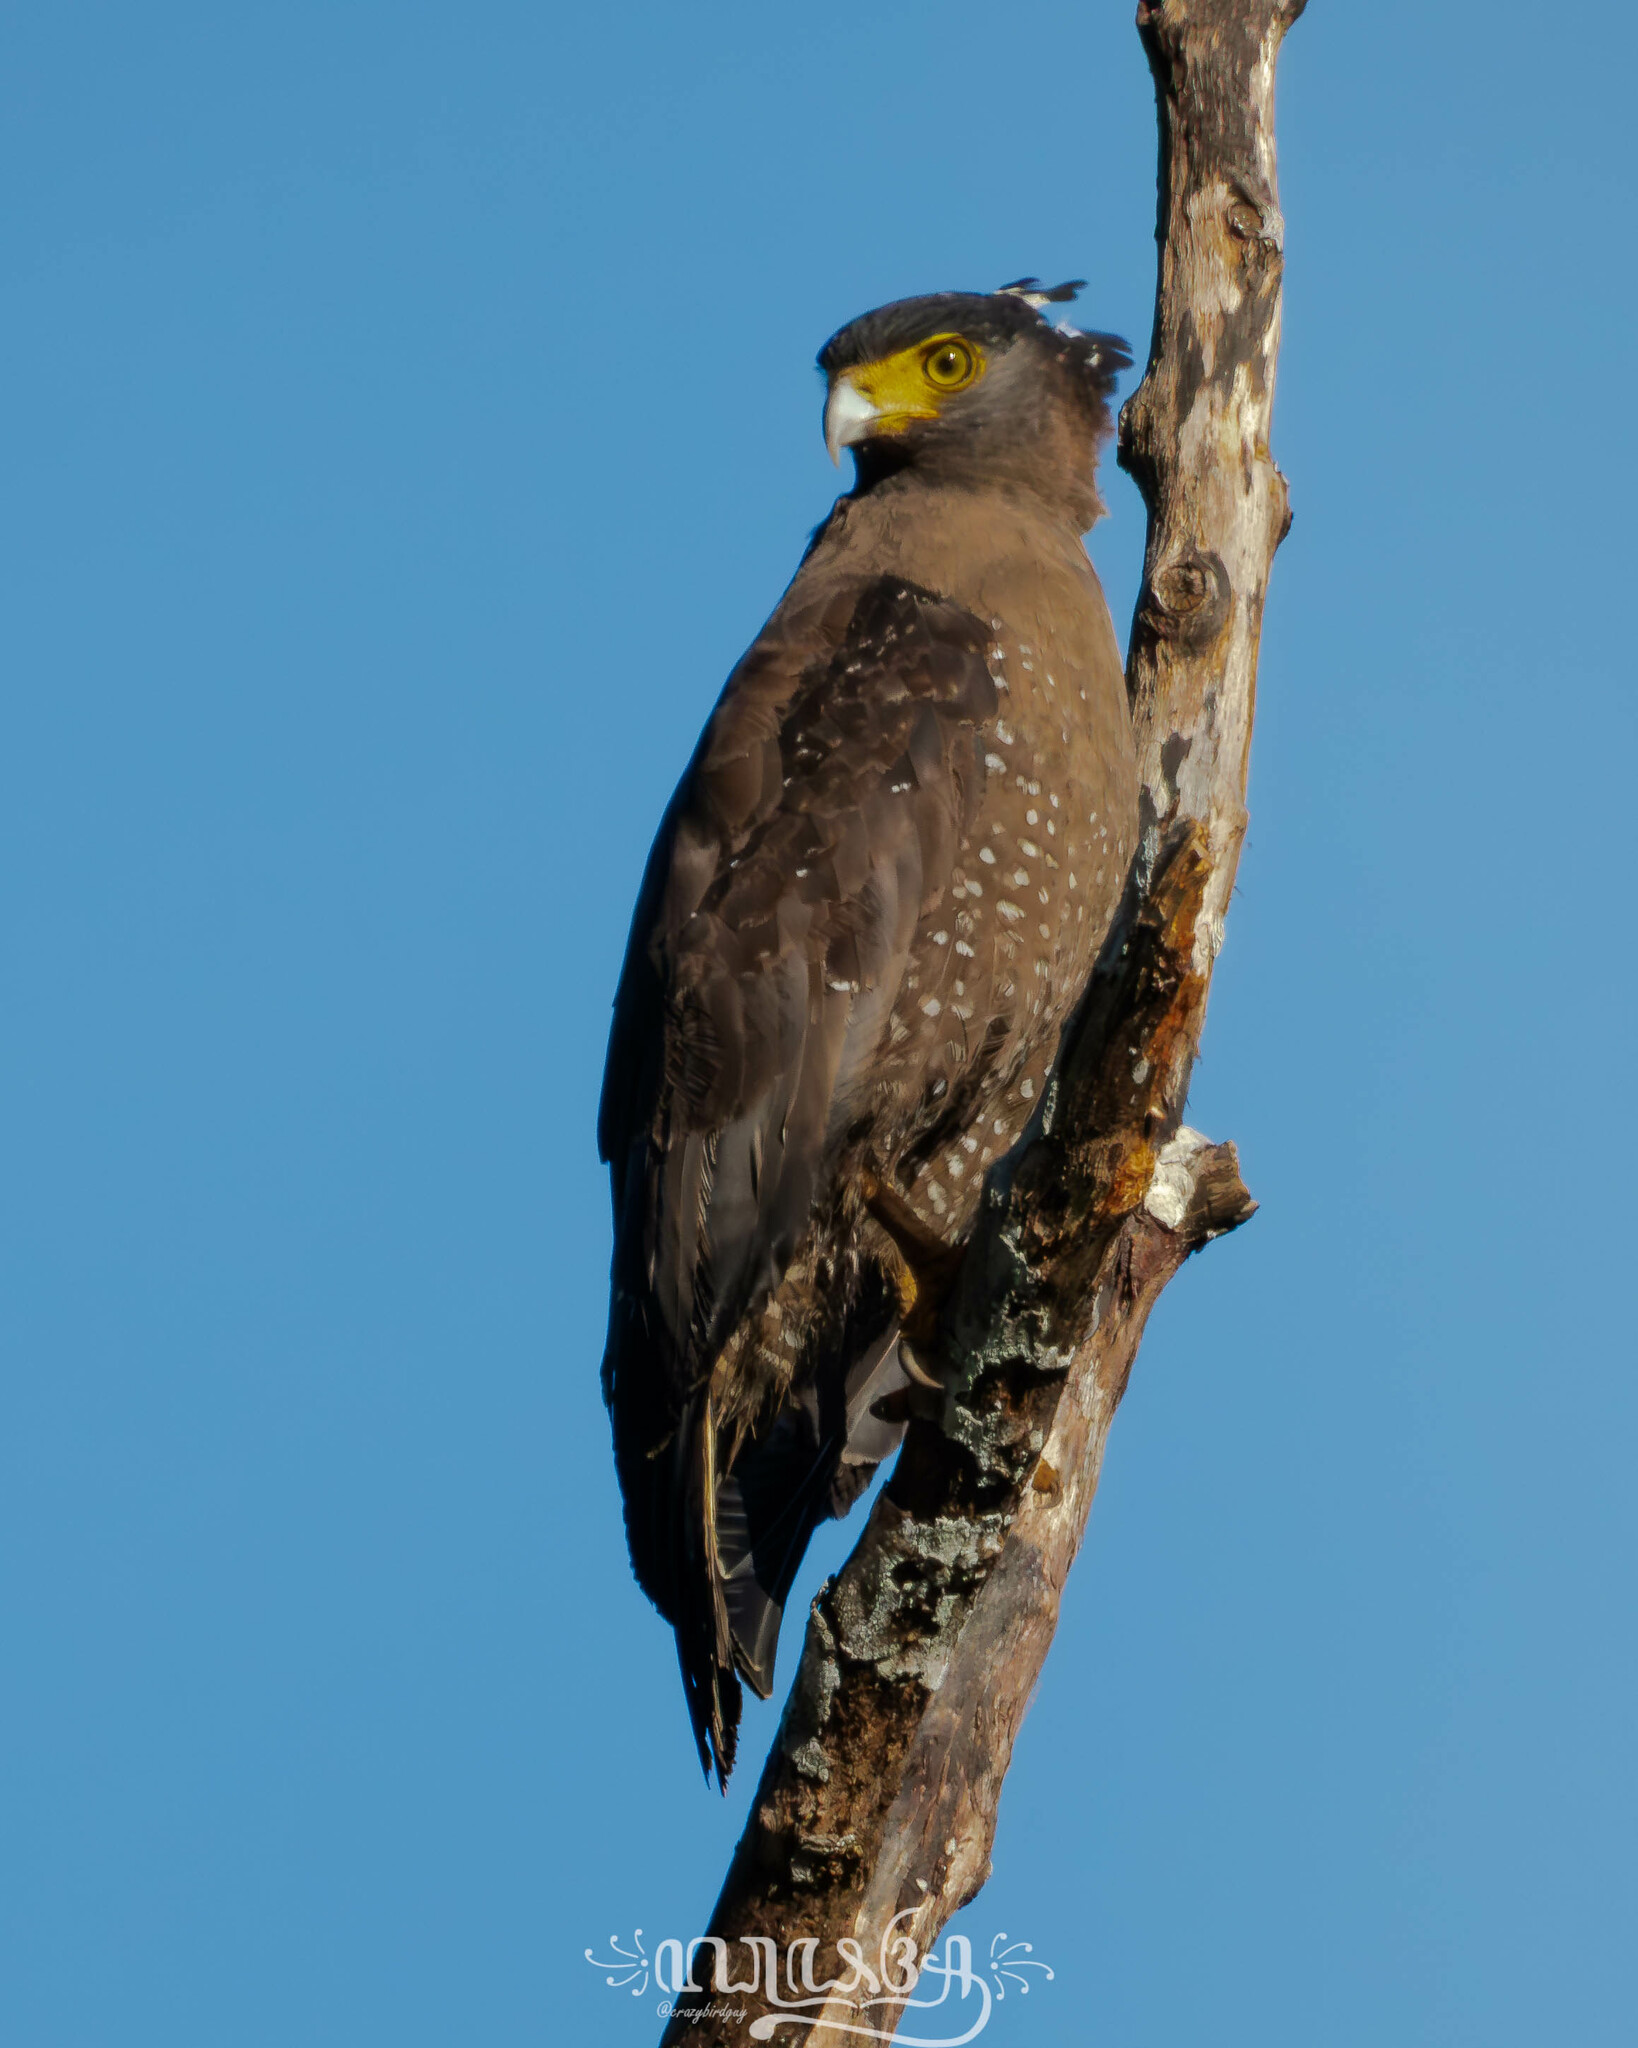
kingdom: Animalia
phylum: Chordata
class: Aves
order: Accipitriformes
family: Accipitridae
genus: Spilornis
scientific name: Spilornis cheela
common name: Crested serpent eagle
